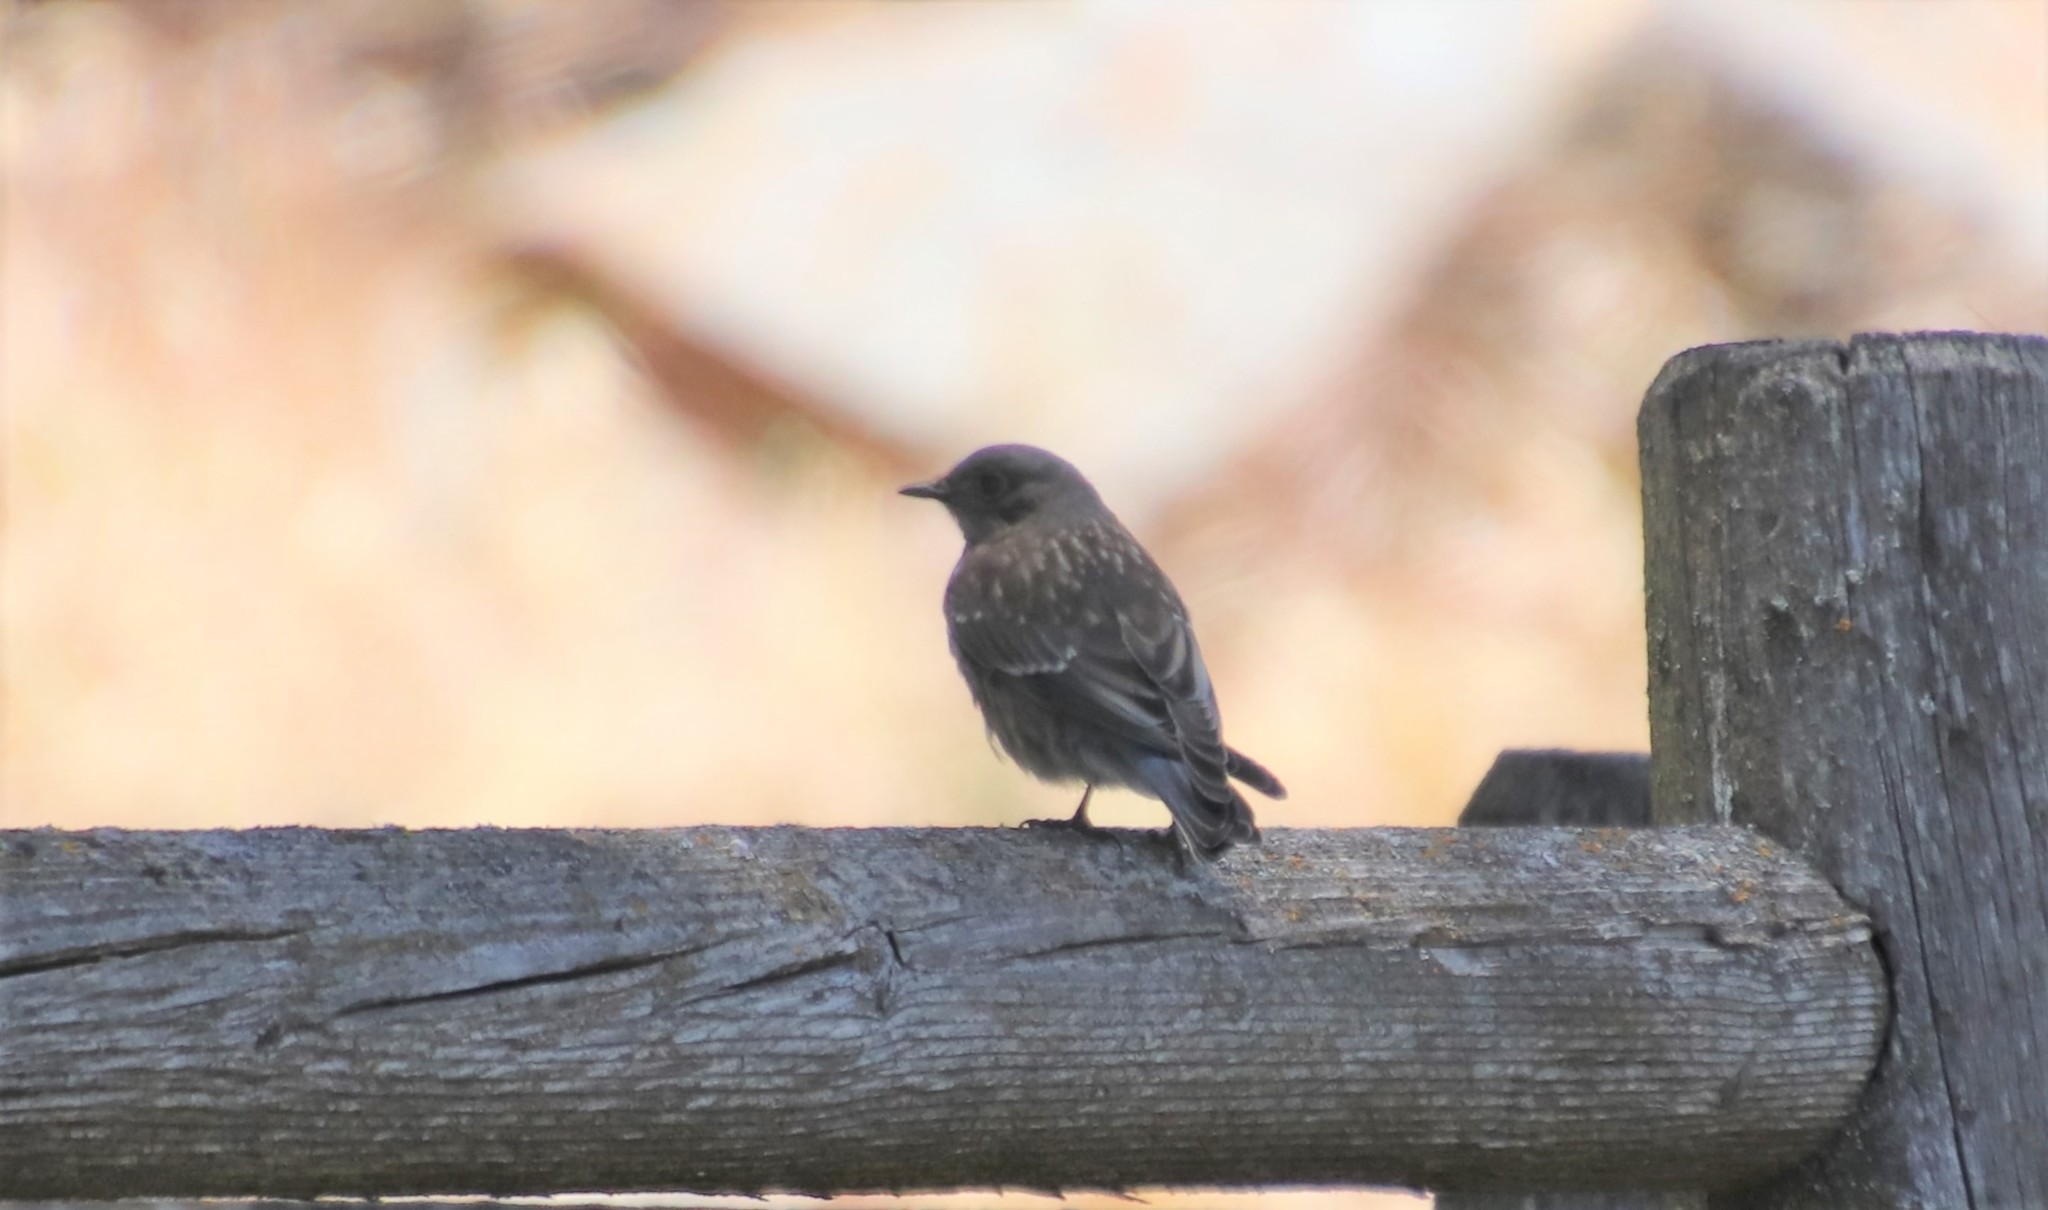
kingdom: Animalia
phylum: Chordata
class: Aves
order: Passeriformes
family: Turdidae
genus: Sialia
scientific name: Sialia mexicana
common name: Western bluebird
